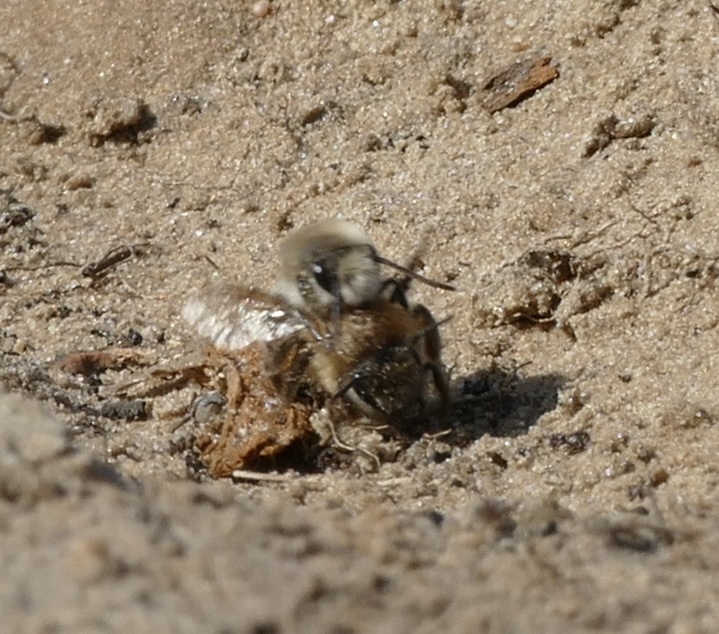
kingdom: Animalia
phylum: Arthropoda
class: Insecta
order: Hymenoptera
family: Colletidae
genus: Colletes
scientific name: Colletes cunicularius
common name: Early colletes
